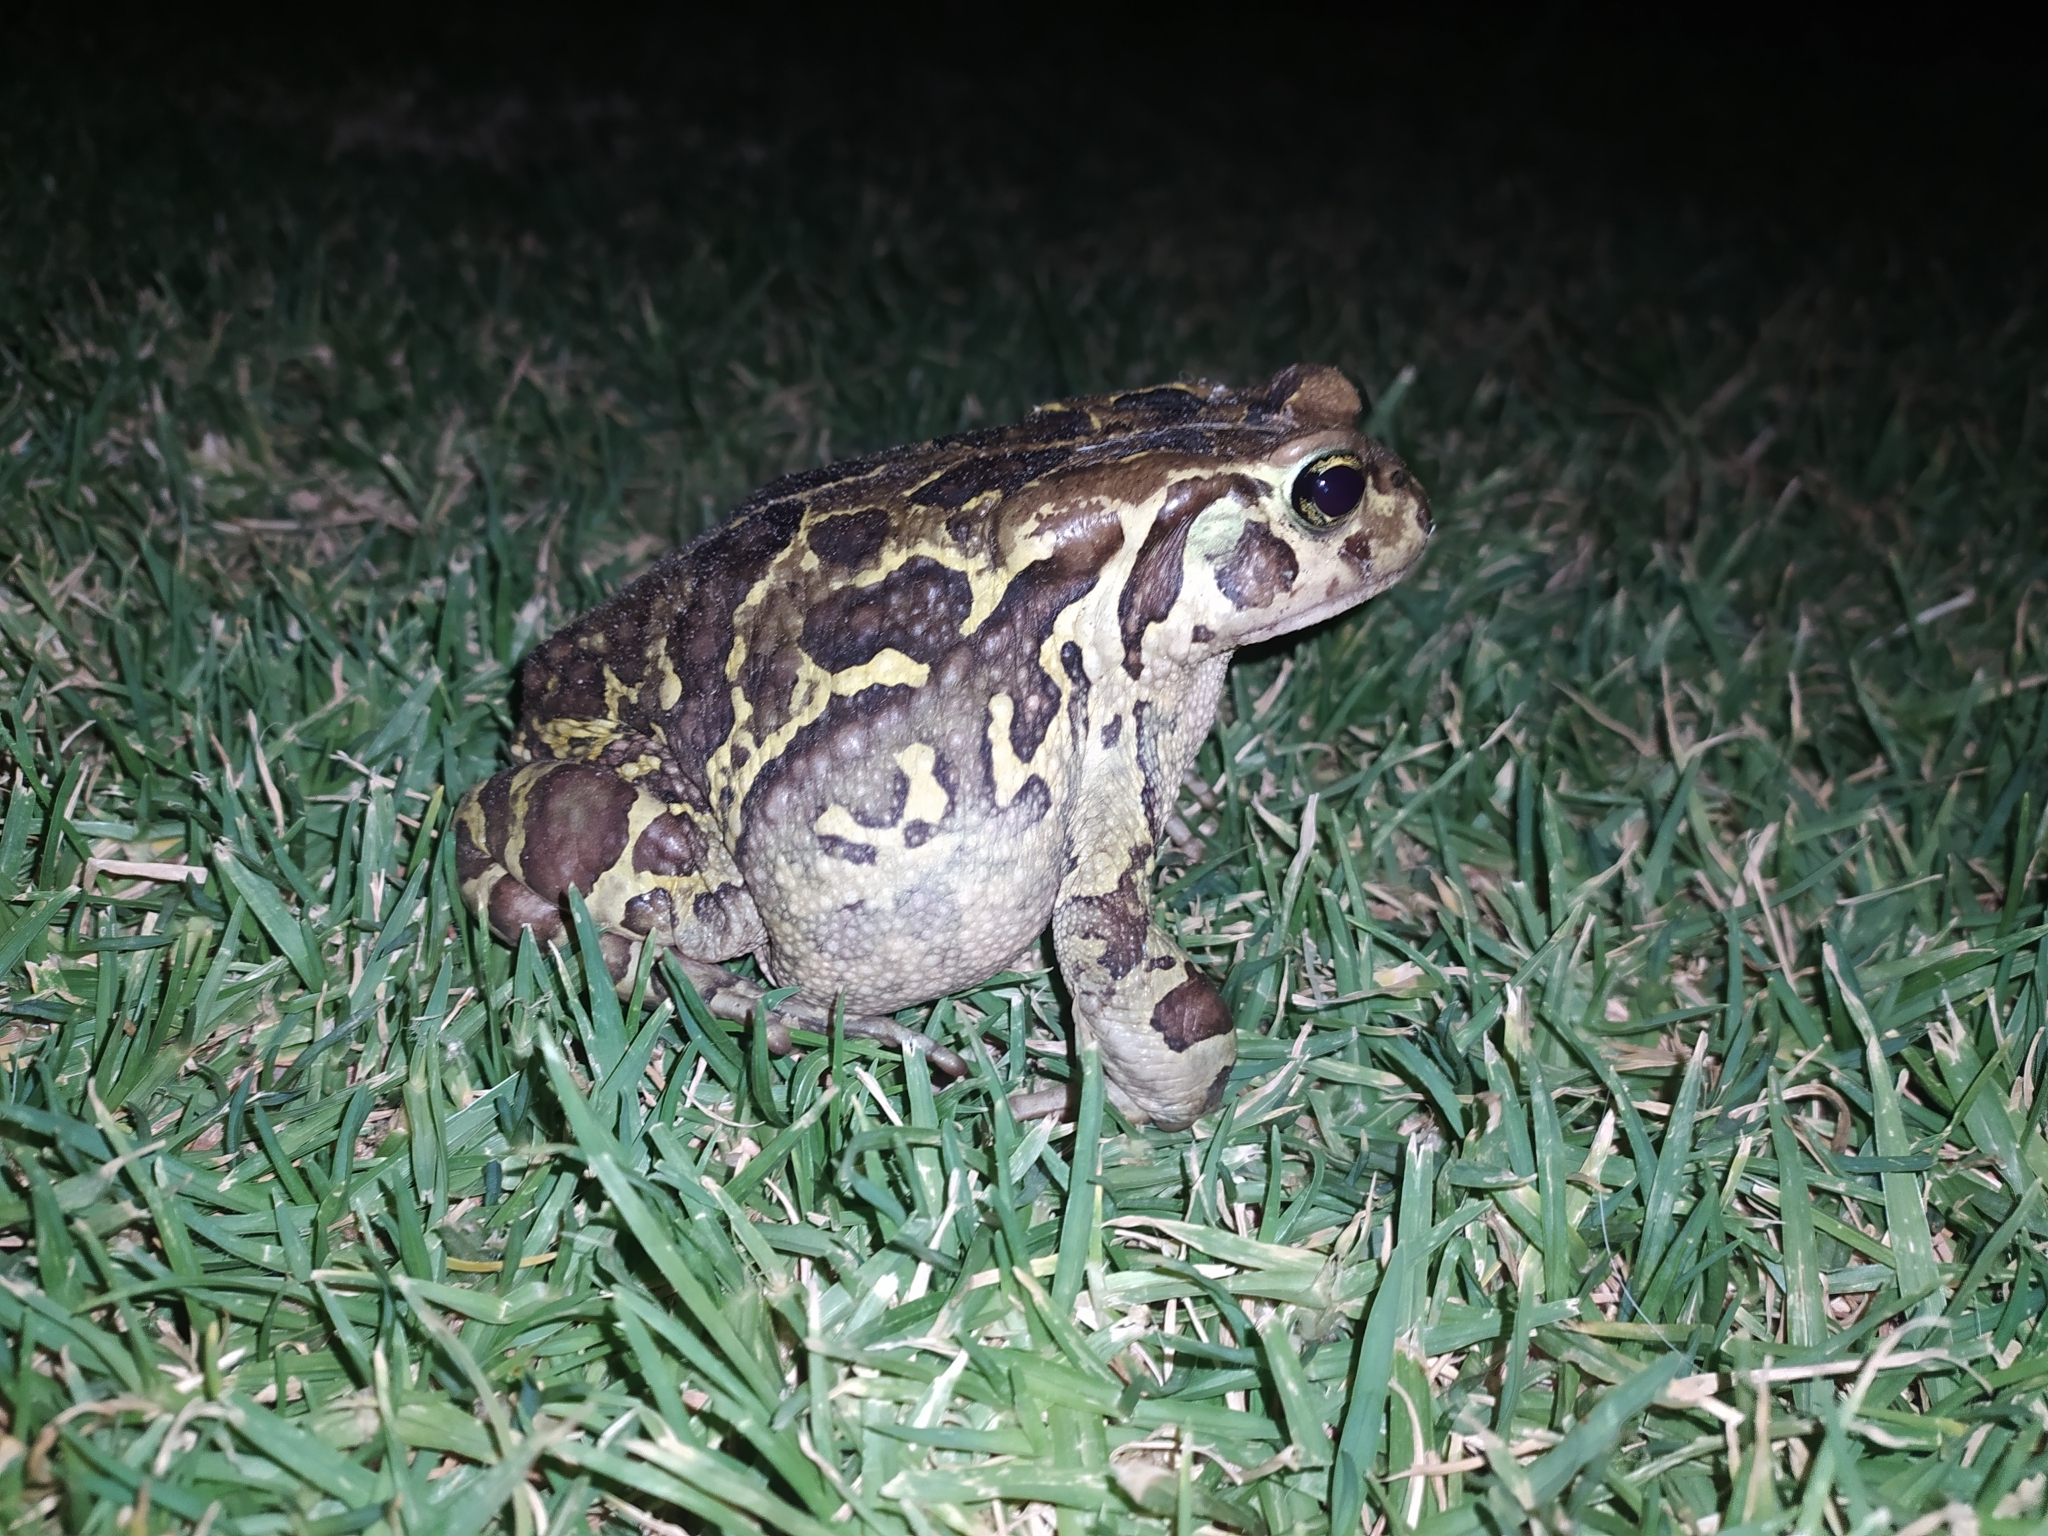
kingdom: Animalia
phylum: Chordata
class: Amphibia
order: Anura
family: Bufonidae
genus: Sclerophrys
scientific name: Sclerophrys pantherina
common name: Panther toad
